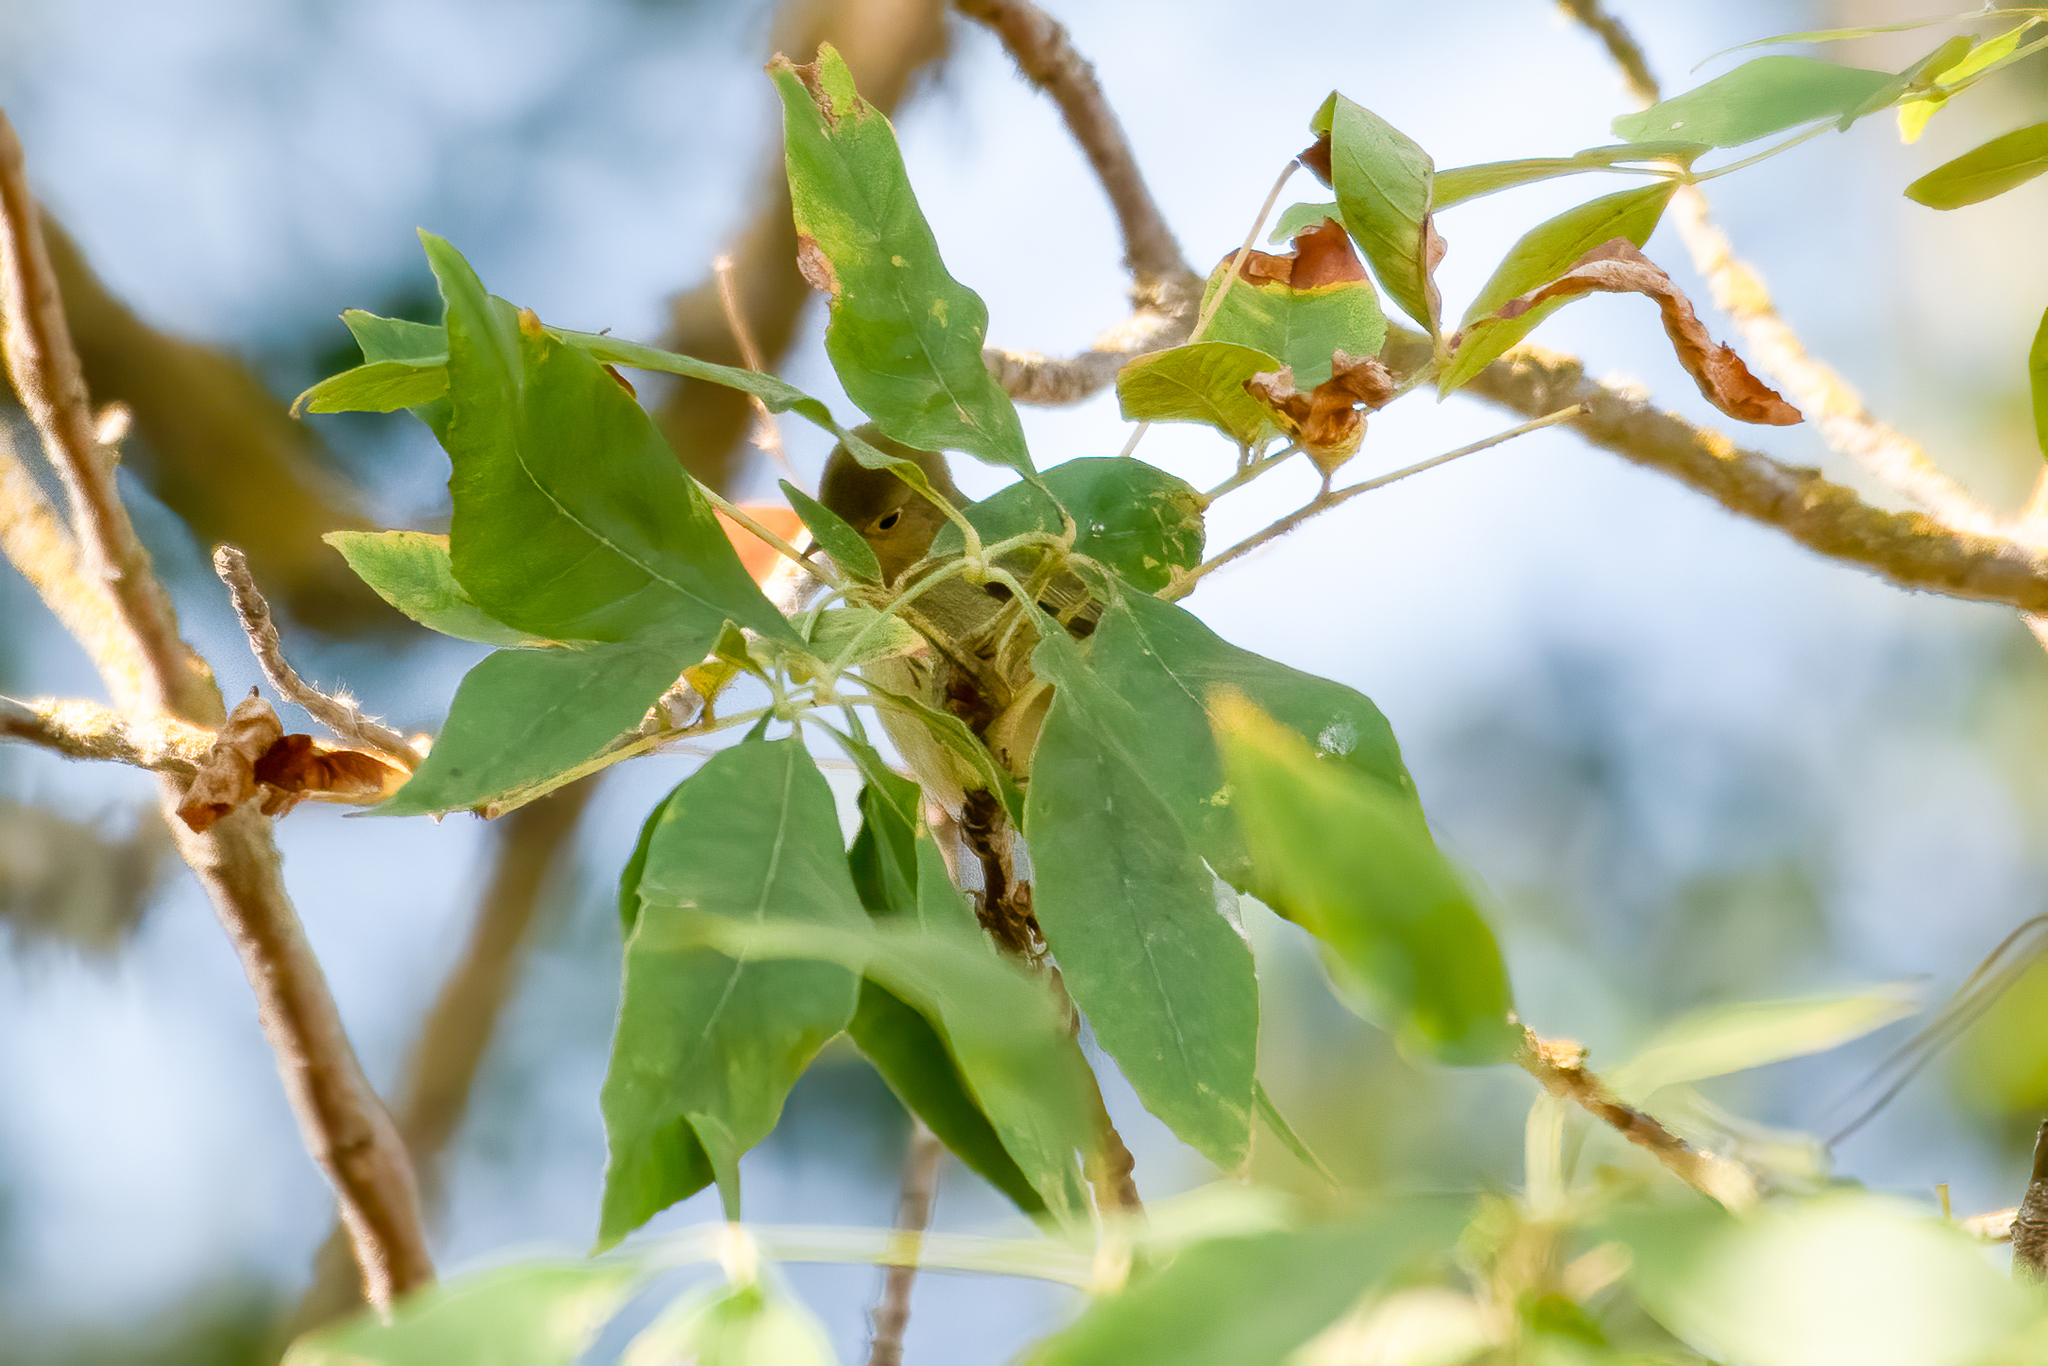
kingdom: Animalia
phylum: Chordata
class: Aves
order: Passeriformes
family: Parulidae
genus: Setophaga
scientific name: Setophaga petechia
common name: Yellow warbler
